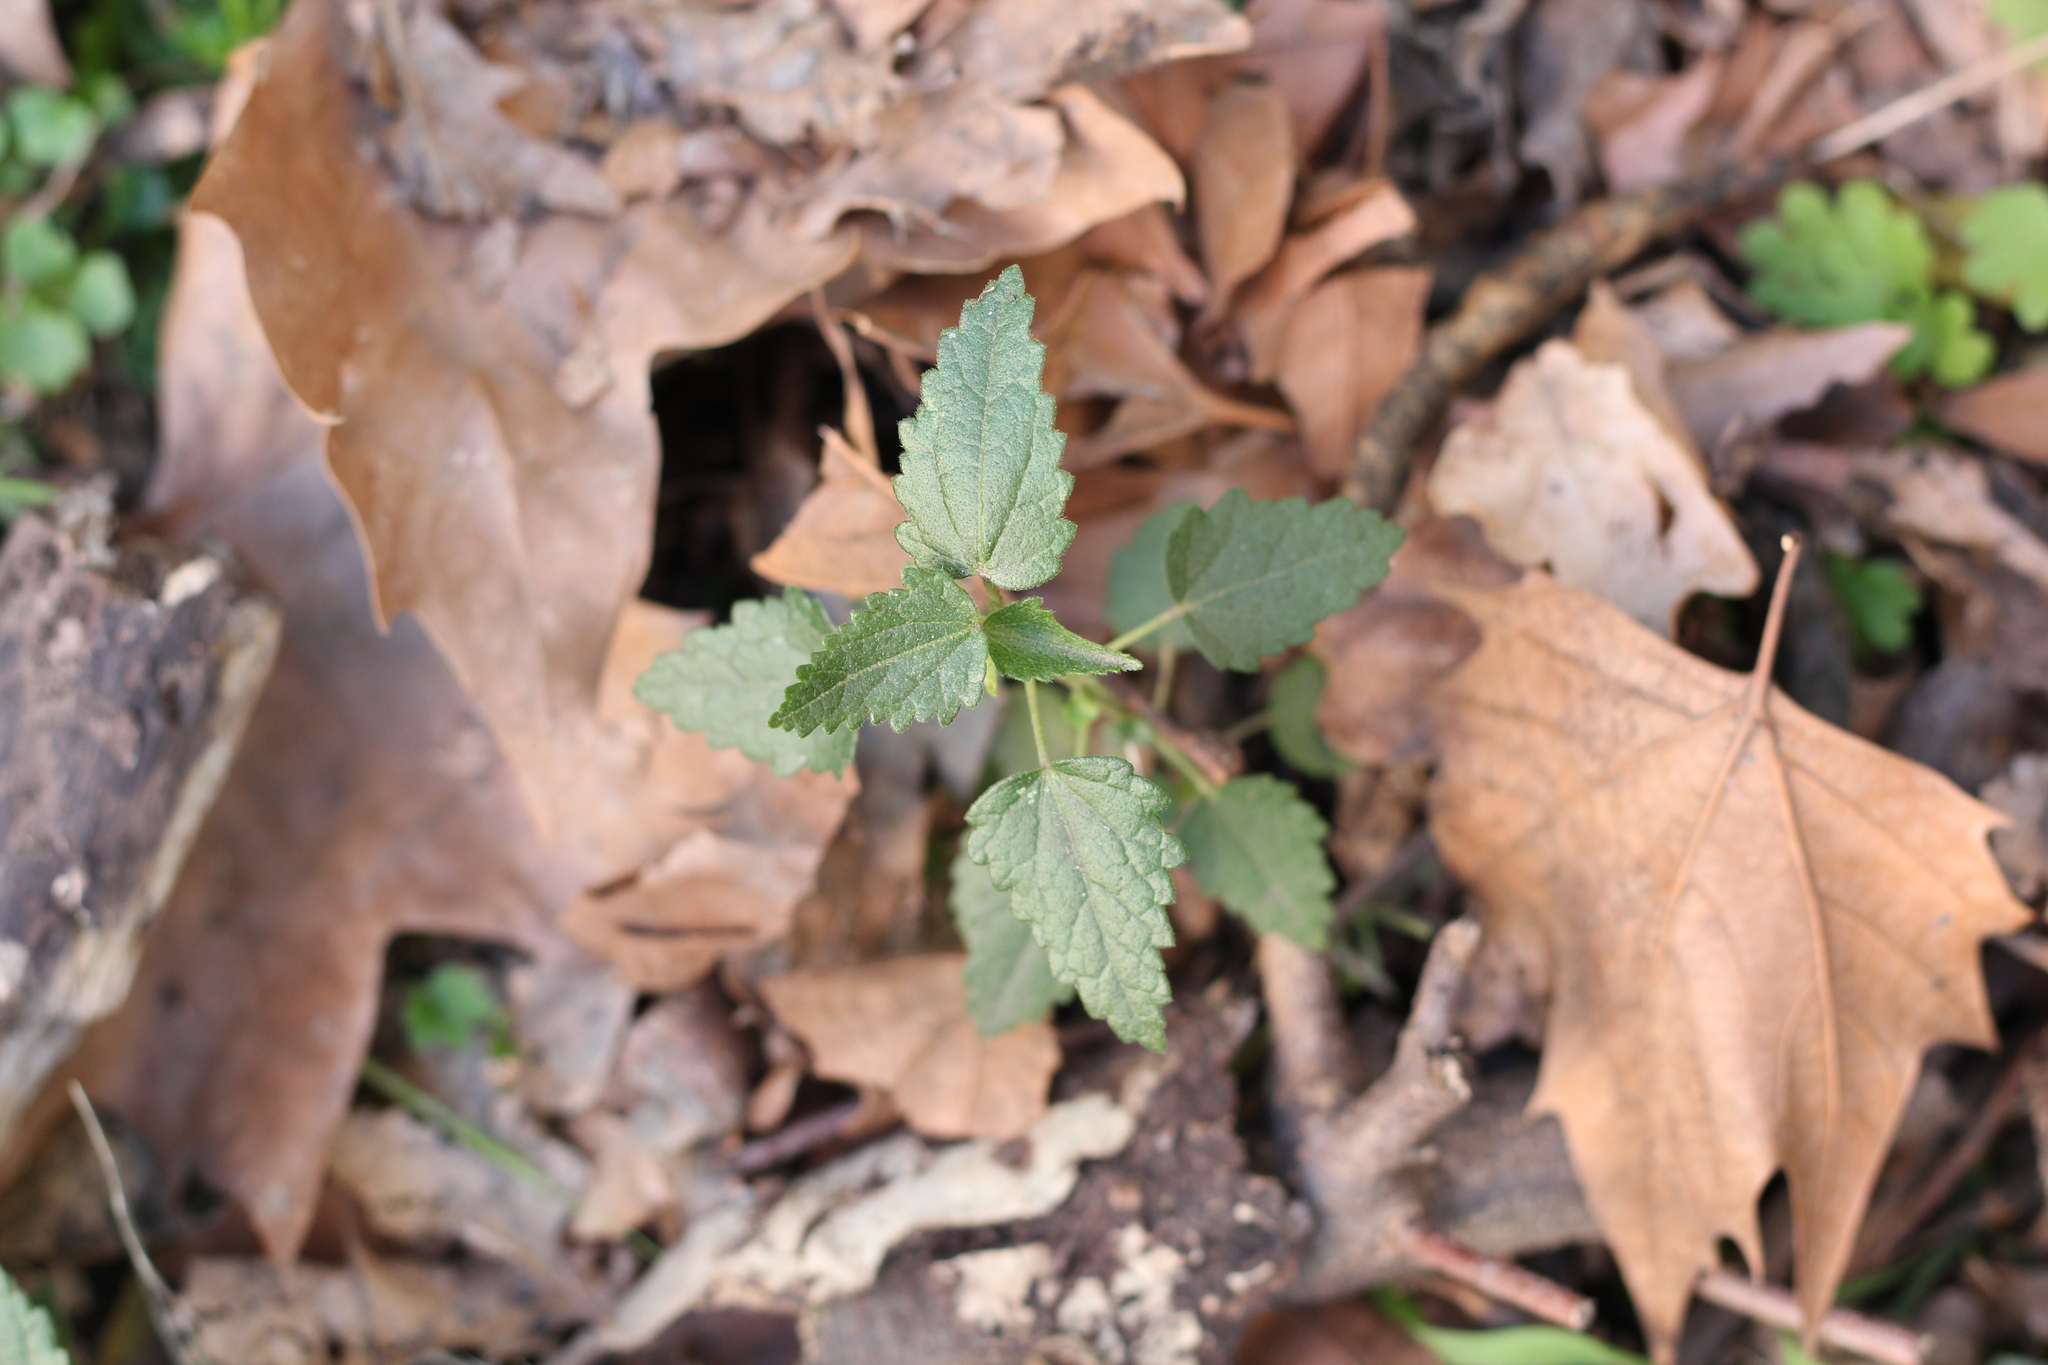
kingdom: Plantae
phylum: Tracheophyta
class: Magnoliopsida
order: Malvales
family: Malvaceae
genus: Pavonia
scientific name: Pavonia hastata
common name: Spearleaf swampmallow
